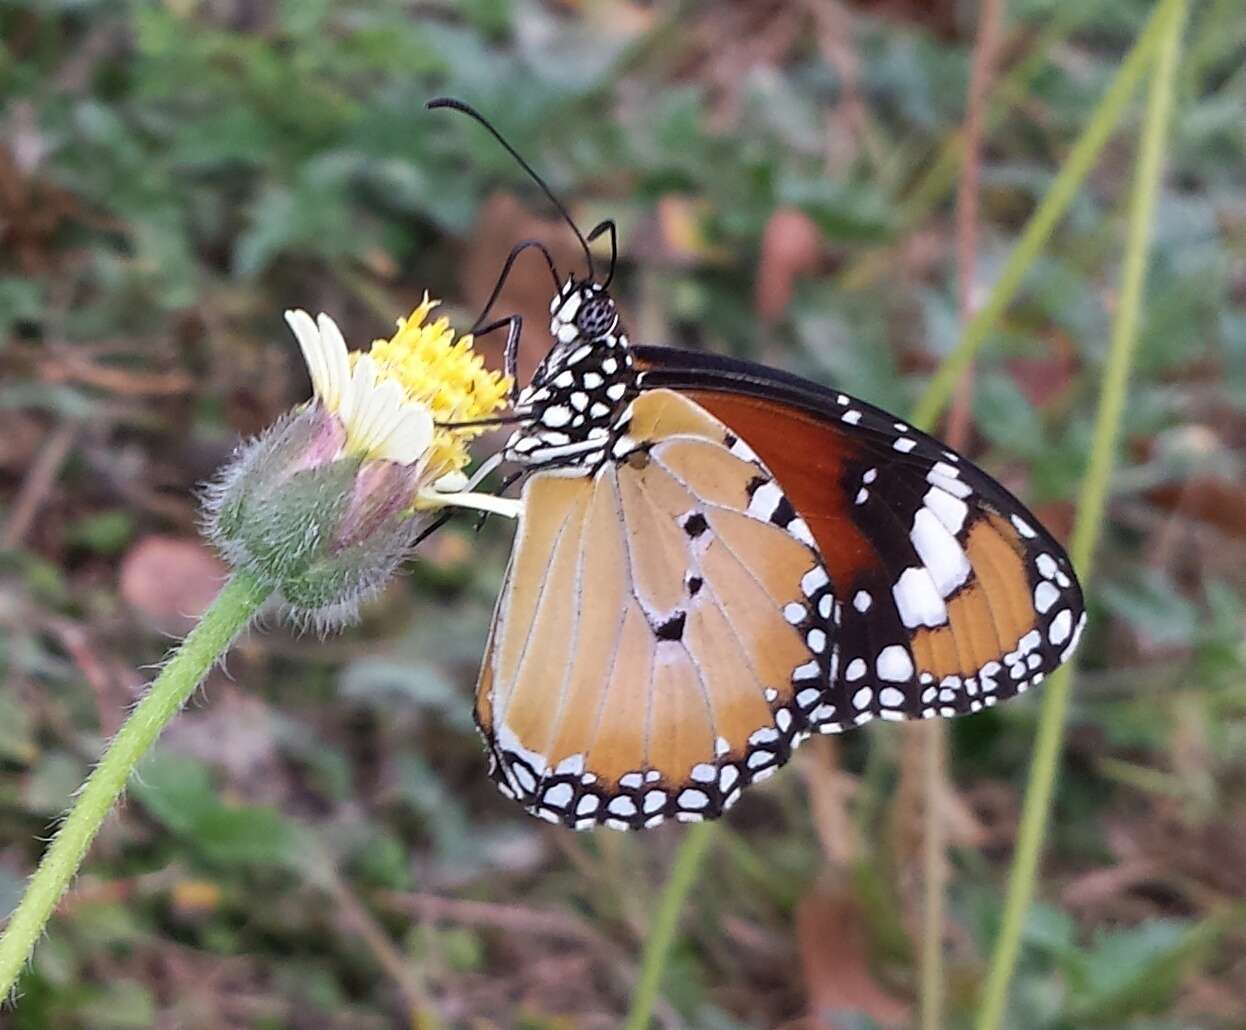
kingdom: Animalia
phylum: Arthropoda
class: Insecta
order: Lepidoptera
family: Nymphalidae
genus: Danaus
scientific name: Danaus chrysippus
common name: Plain tiger
